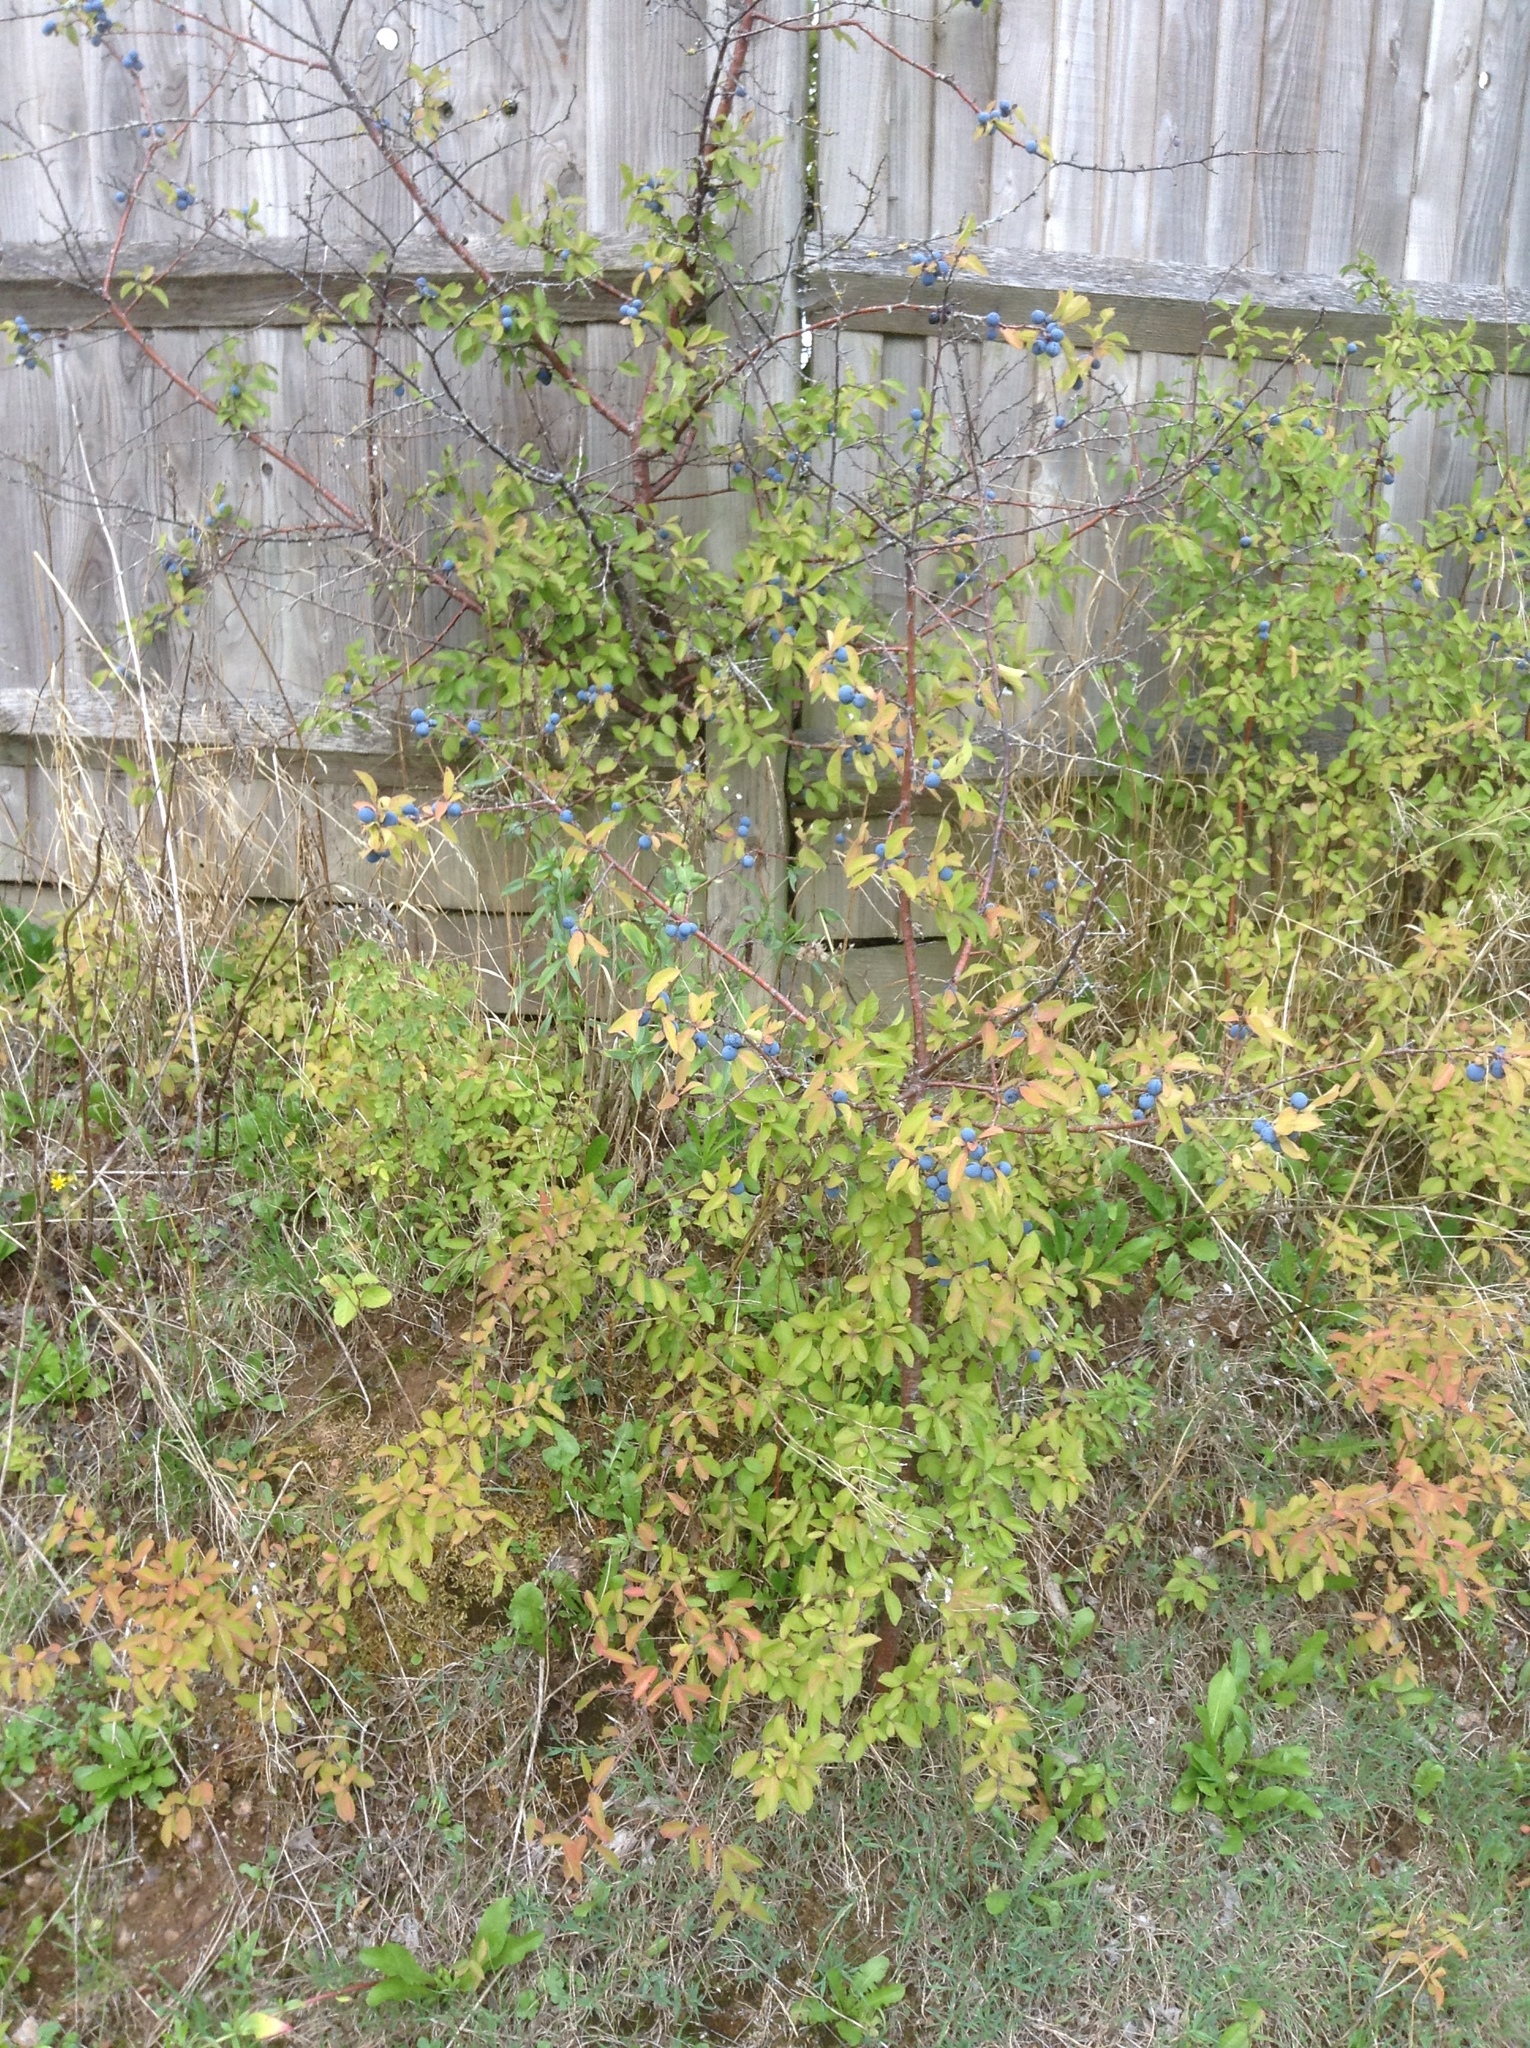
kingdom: Plantae
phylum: Tracheophyta
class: Magnoliopsida
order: Rosales
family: Rosaceae
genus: Prunus
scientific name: Prunus spinosa
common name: Blackthorn
